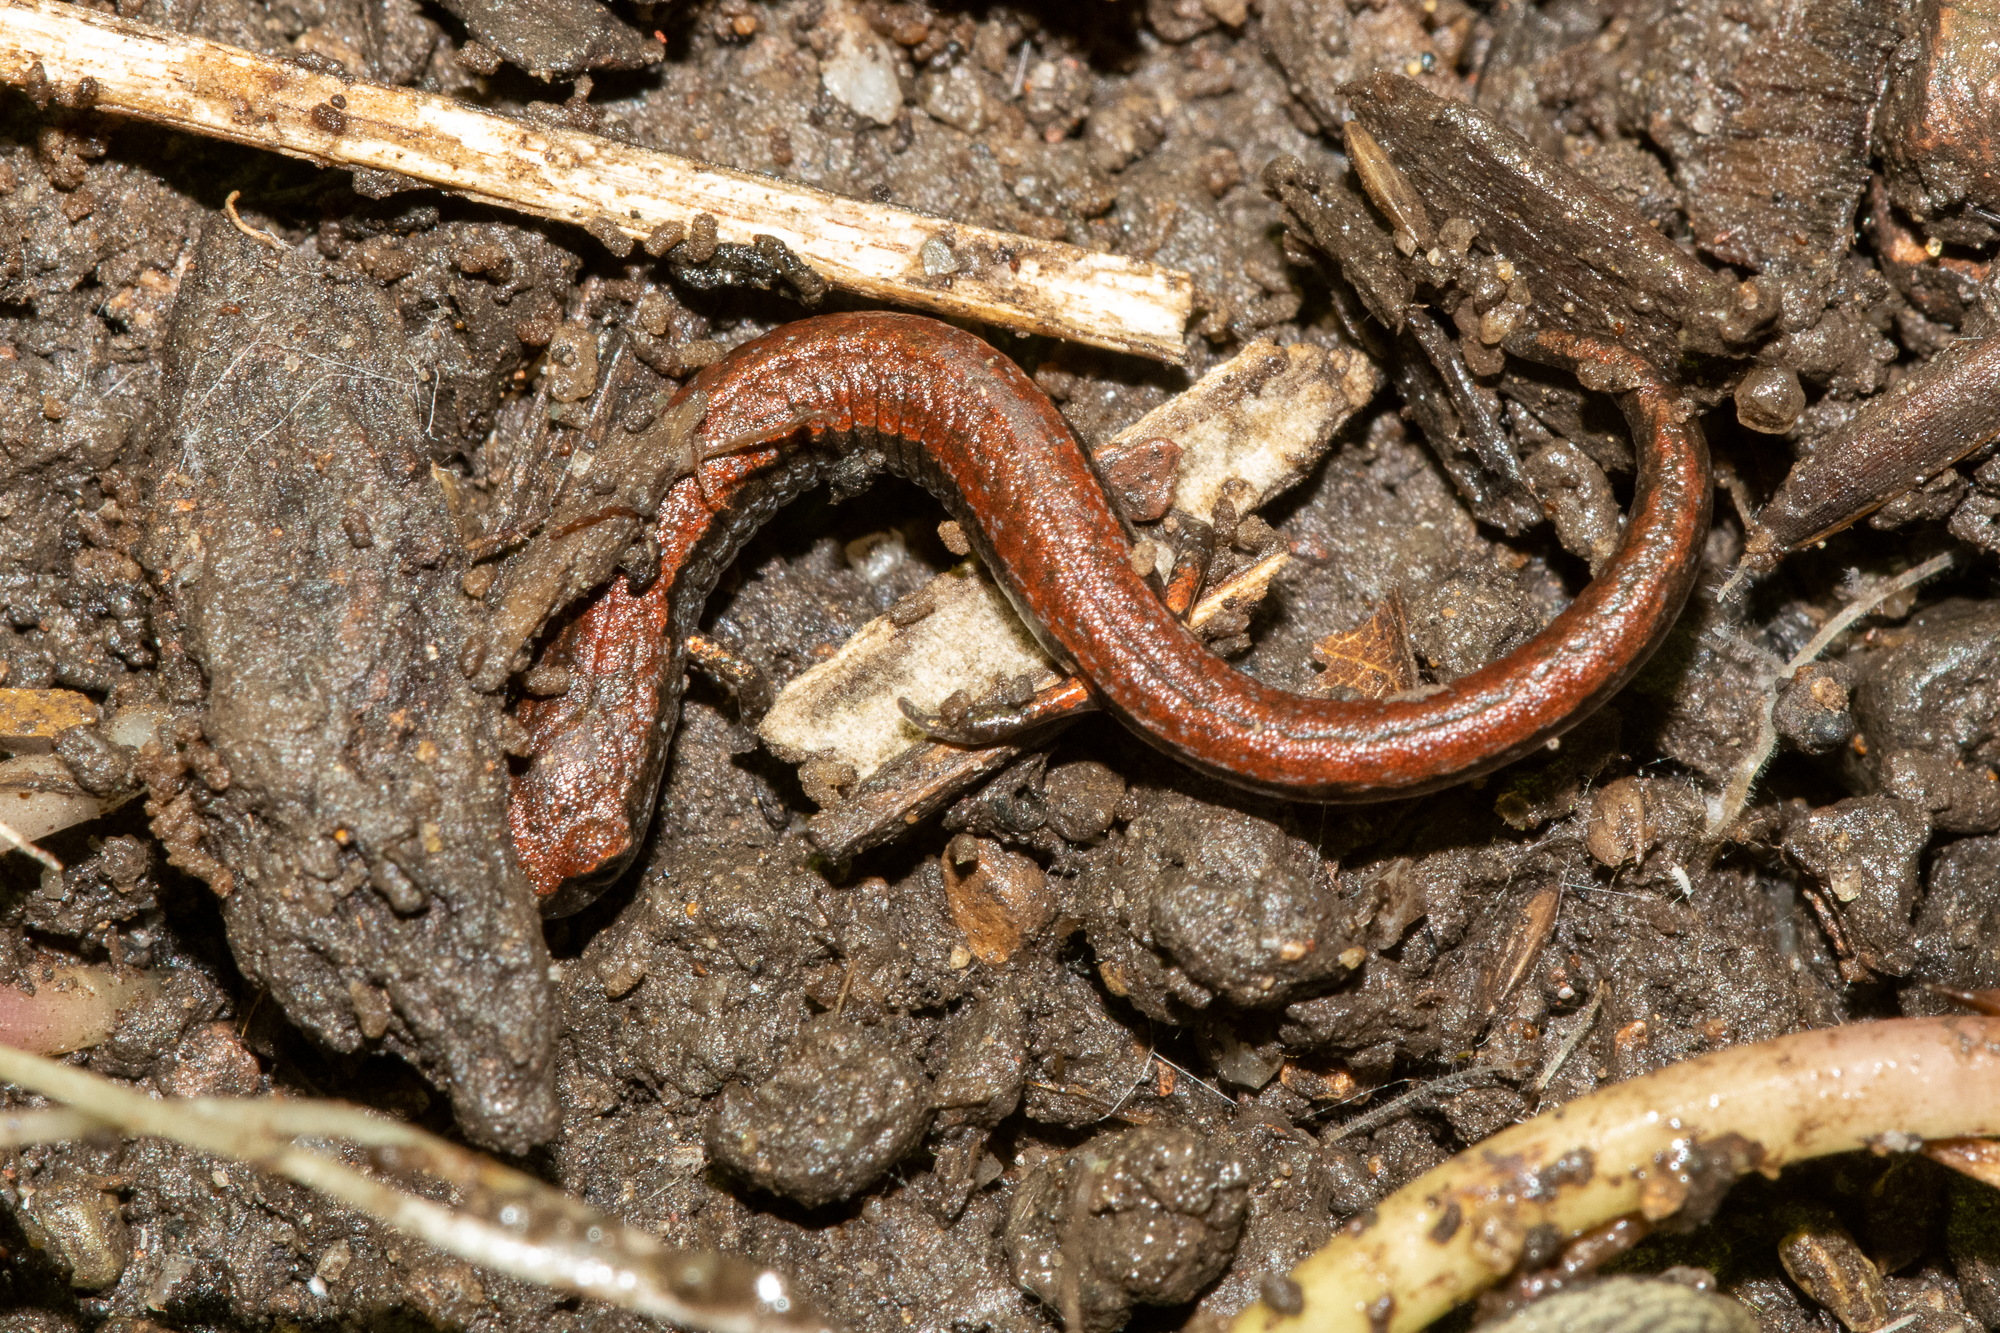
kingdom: Animalia
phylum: Chordata
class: Amphibia
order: Caudata
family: Plethodontidae
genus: Batrachoseps
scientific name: Batrachoseps attenuatus
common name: California slender salamander
